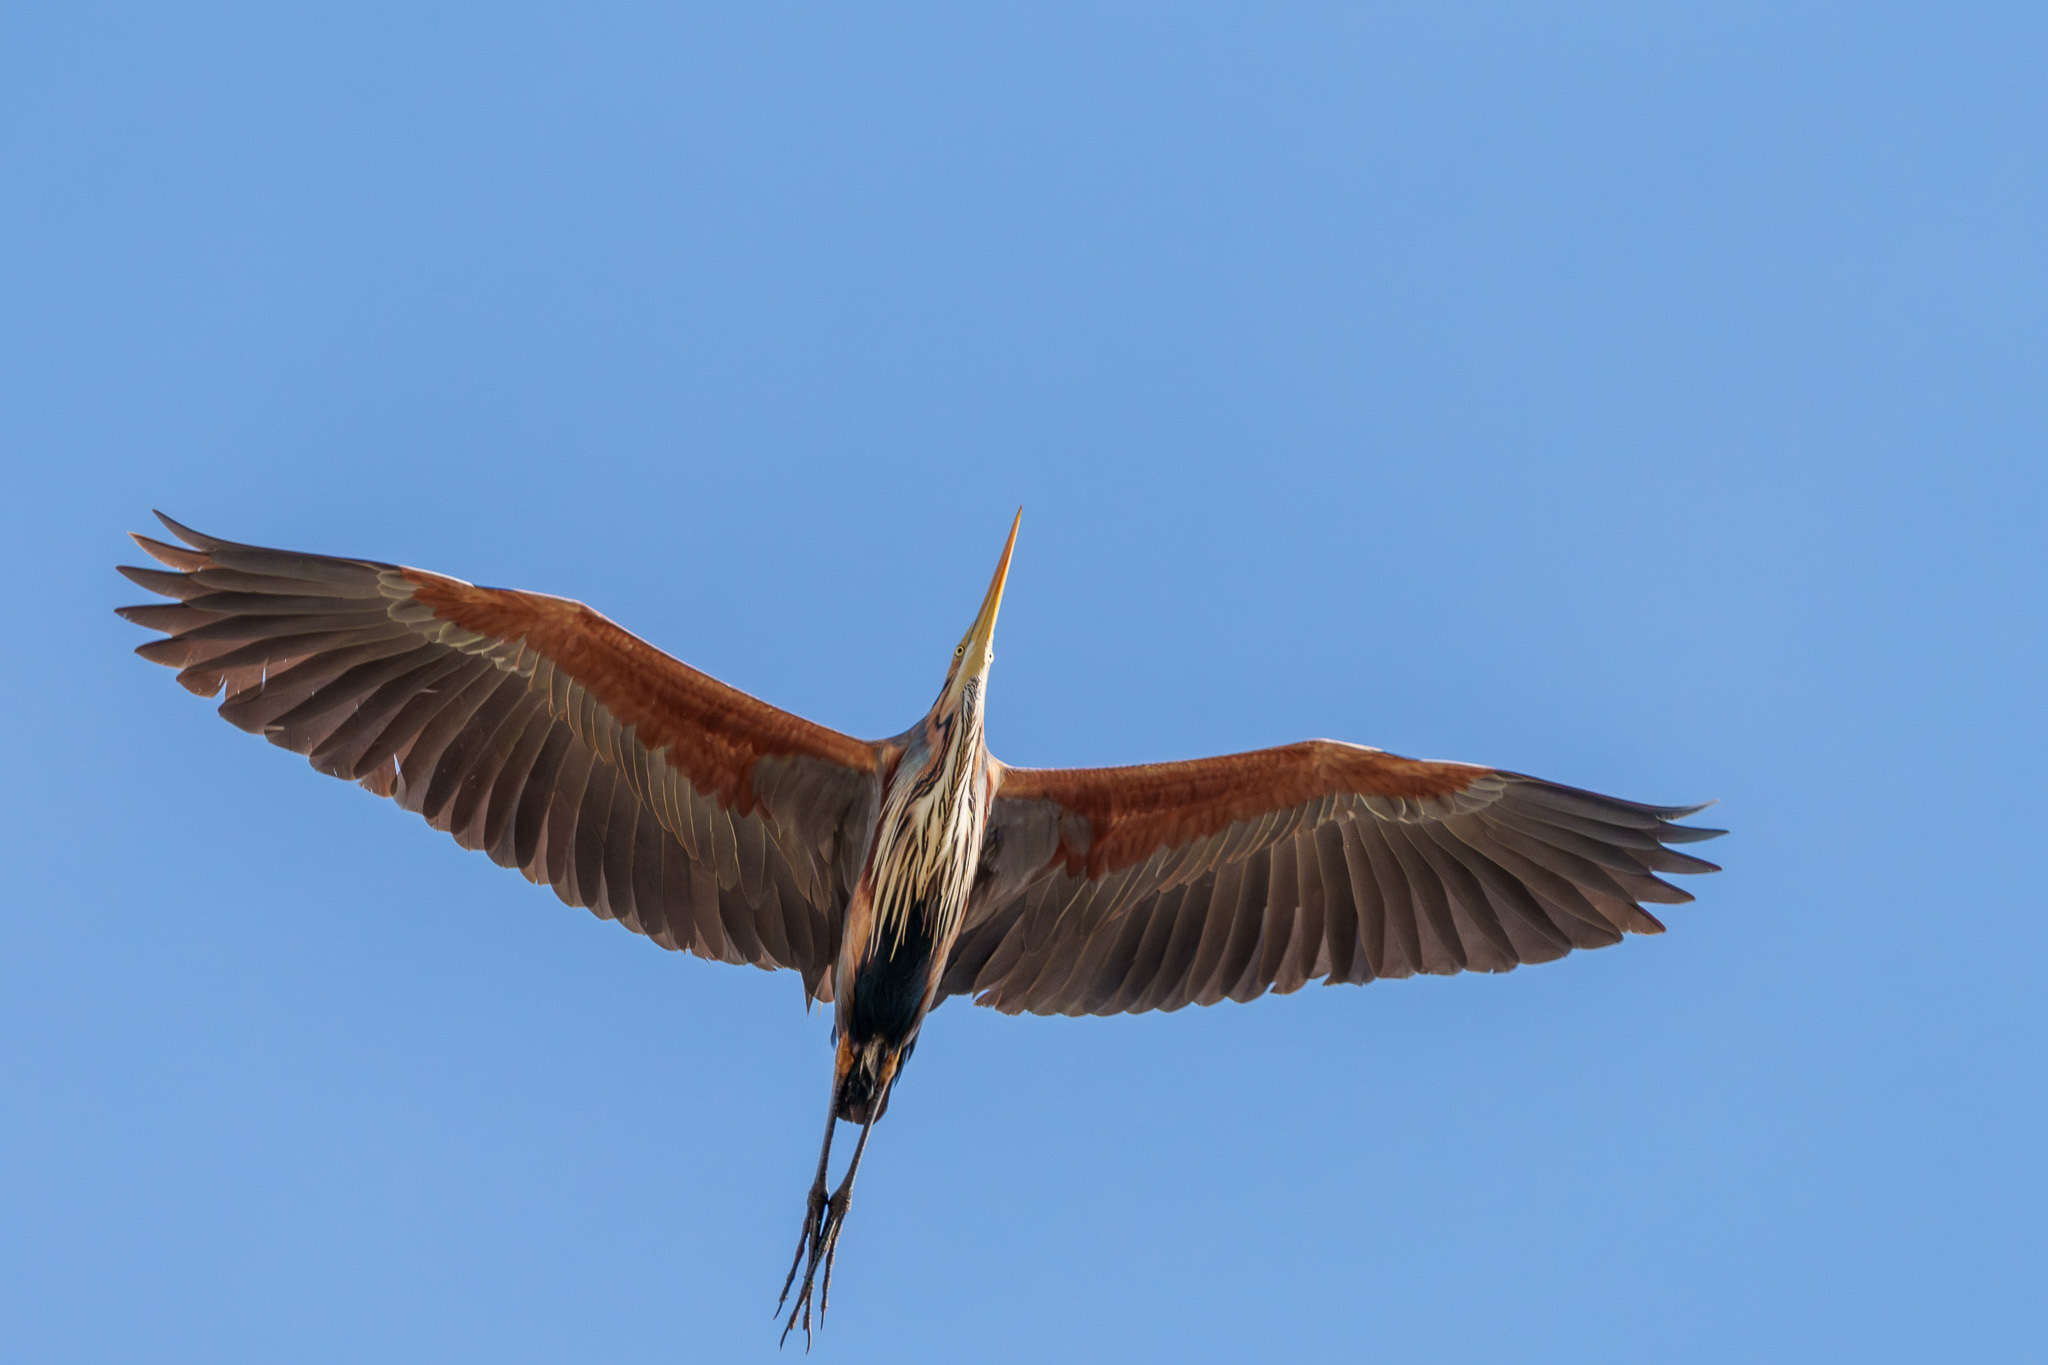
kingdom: Animalia
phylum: Chordata
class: Aves
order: Pelecaniformes
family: Ardeidae
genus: Ardea
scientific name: Ardea purpurea
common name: Purple heron
